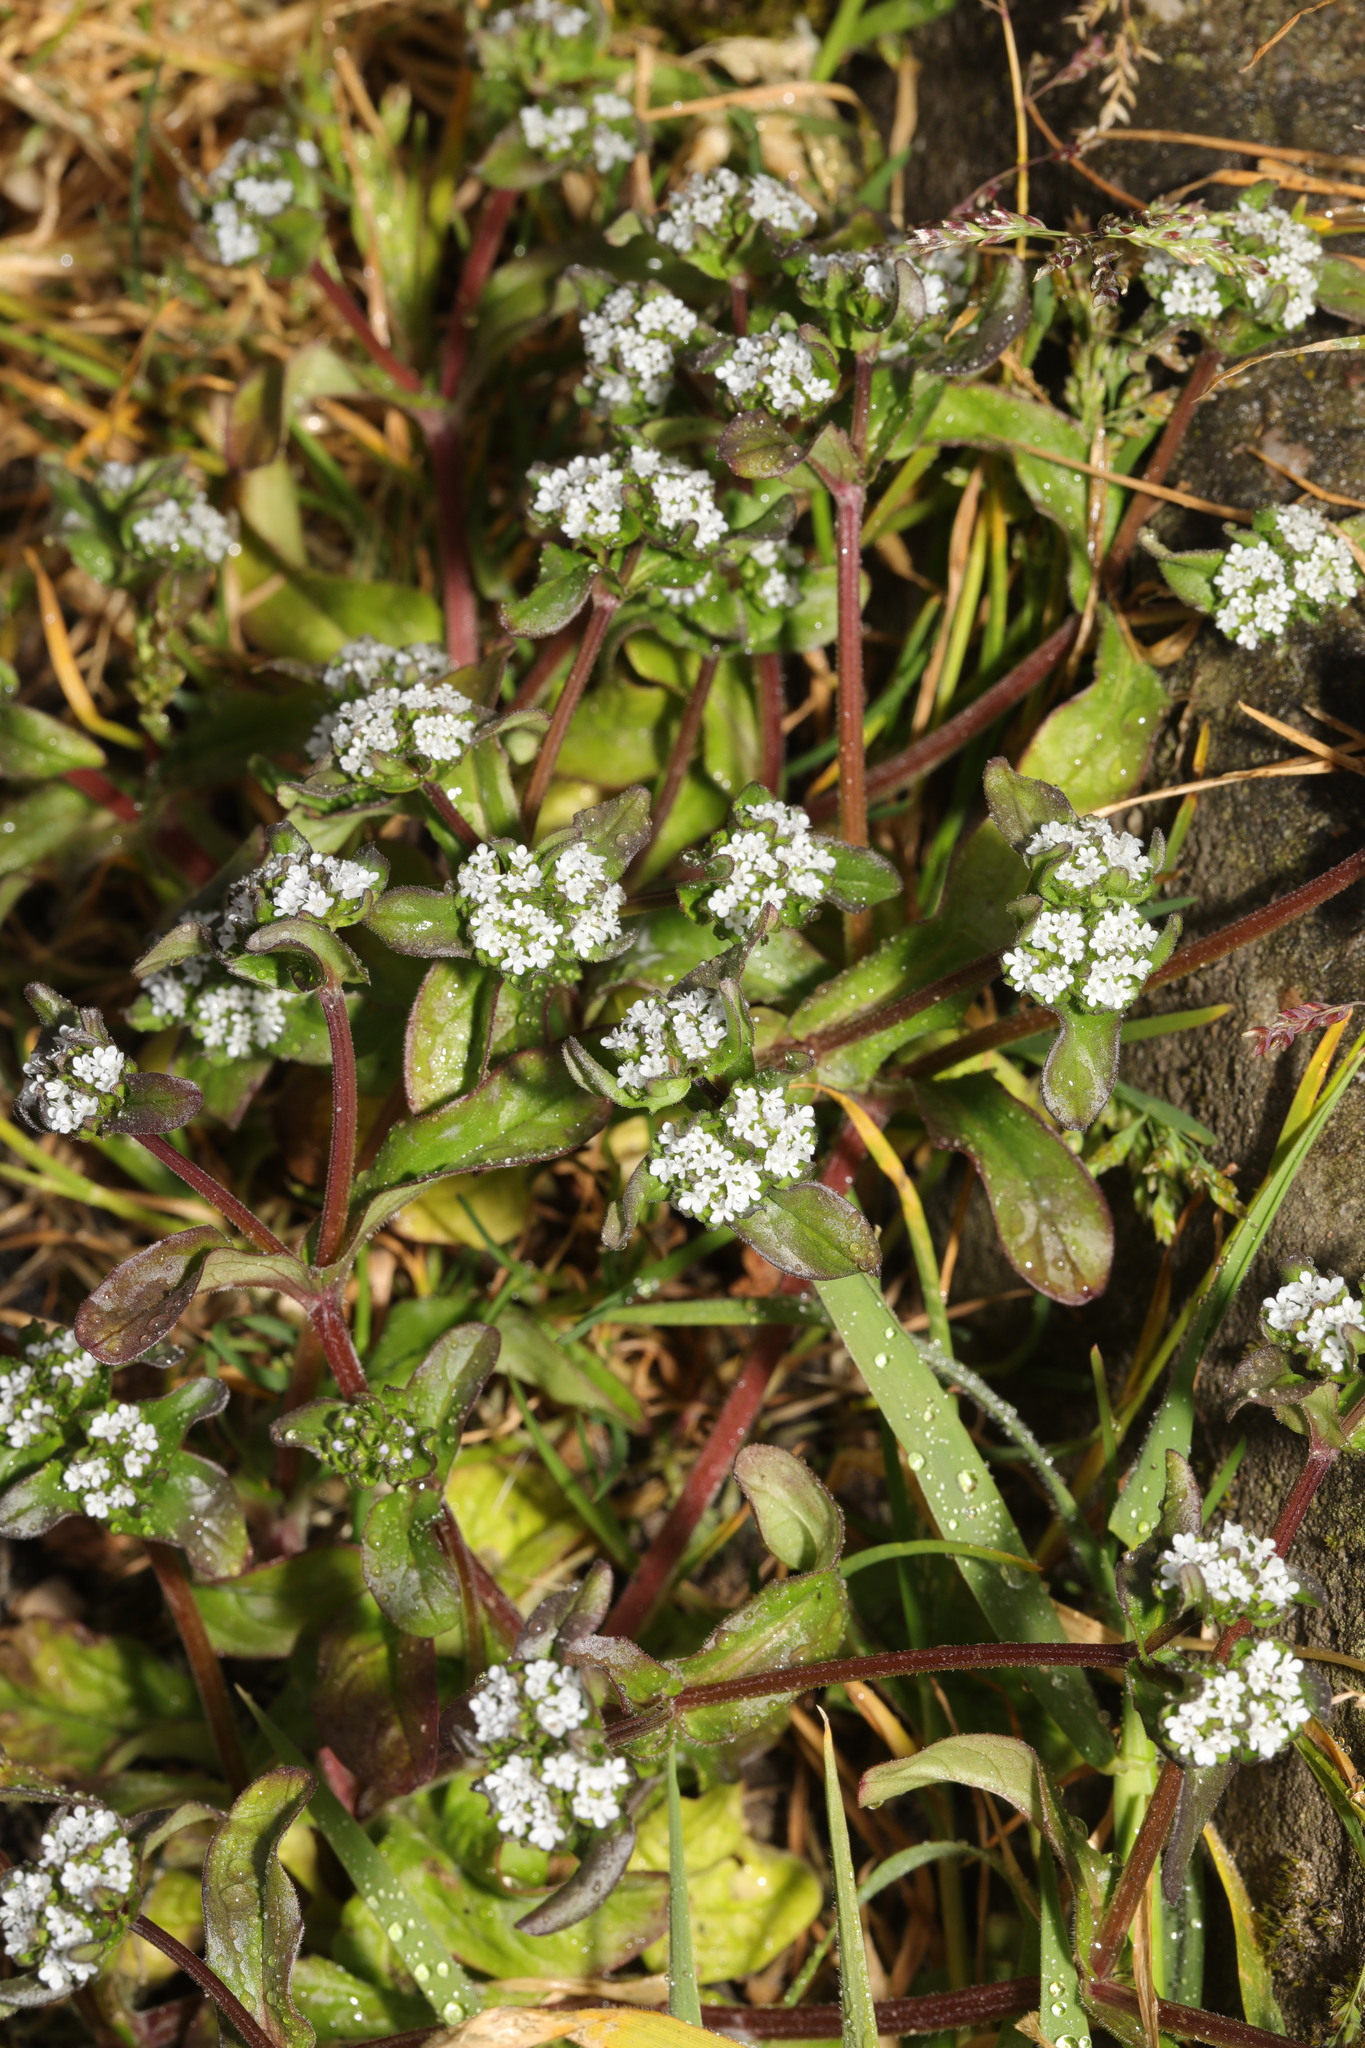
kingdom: Plantae
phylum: Tracheophyta
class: Magnoliopsida
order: Dipsacales
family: Caprifoliaceae
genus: Valerianella
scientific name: Valerianella locusta
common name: Common cornsalad
